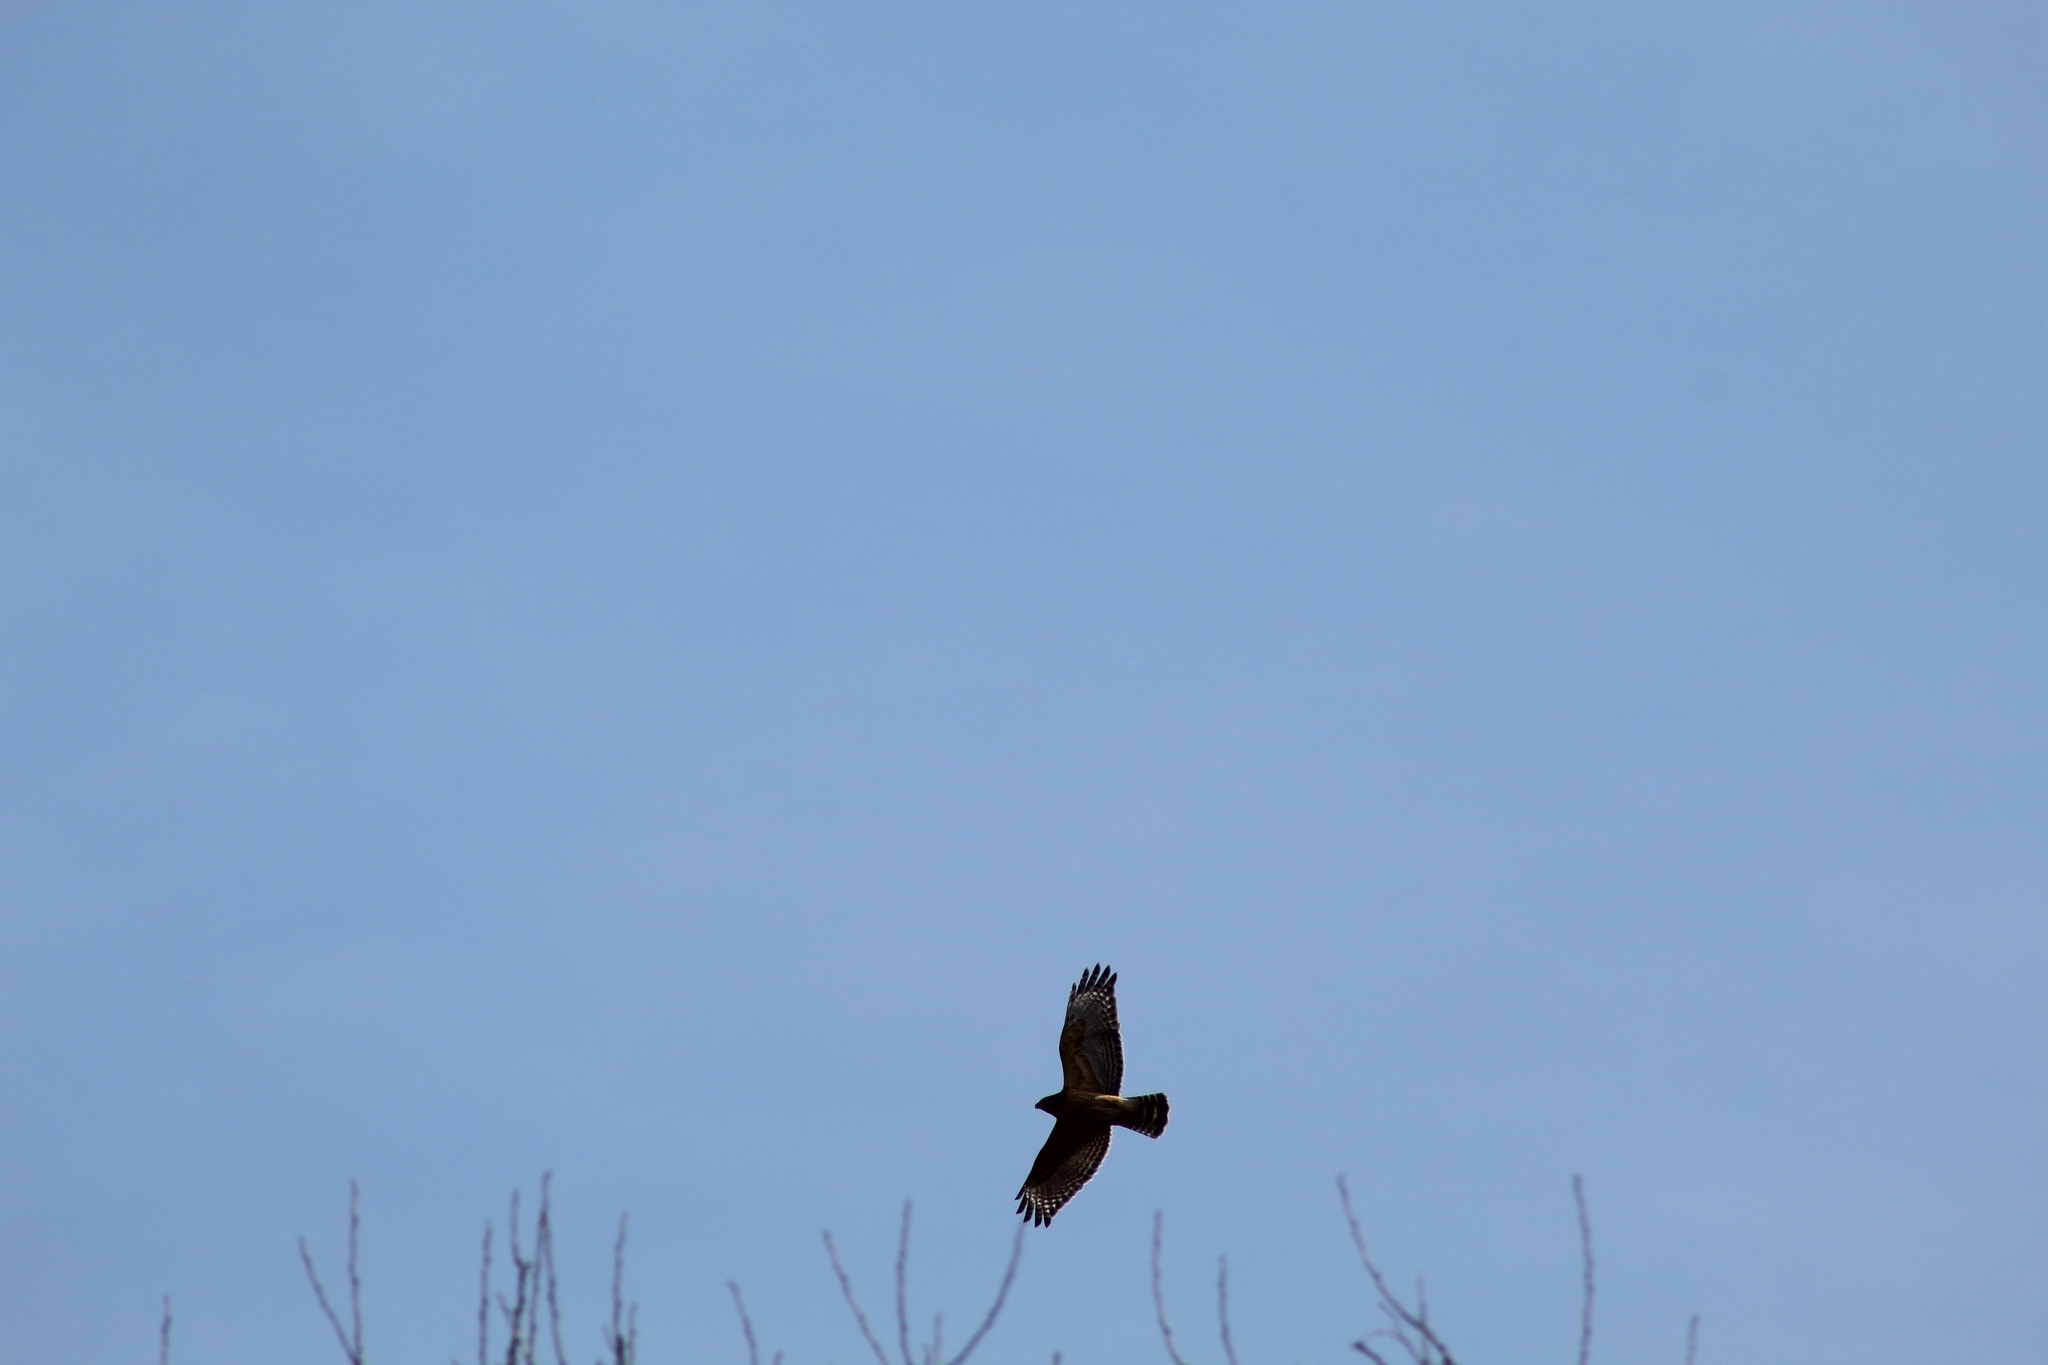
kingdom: Animalia
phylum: Chordata
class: Aves
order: Accipitriformes
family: Accipitridae
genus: Buteo
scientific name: Buteo lineatus
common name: Red-shouldered hawk
